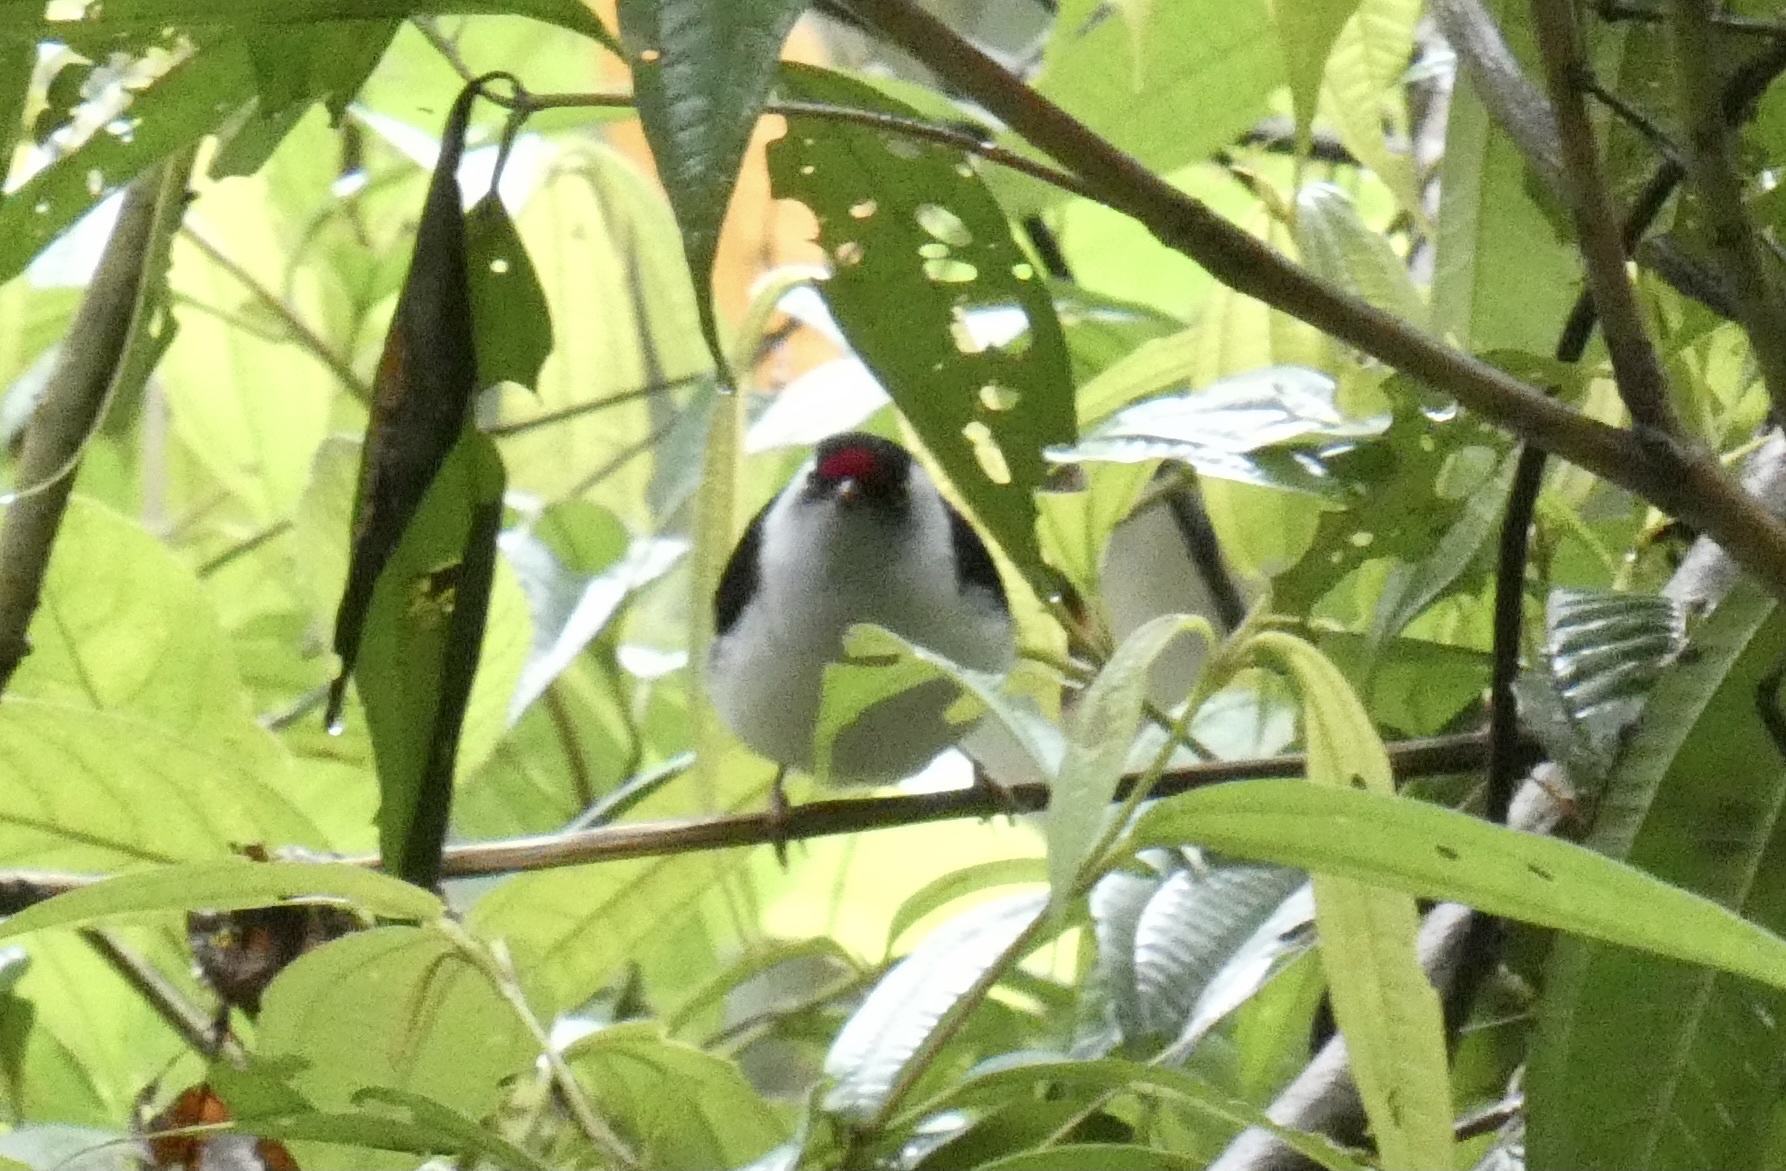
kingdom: Animalia
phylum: Chordata
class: Aves
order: Passeriformes
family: Pipridae
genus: Ilicura
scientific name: Ilicura militaris
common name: Pin-tailed manakin
